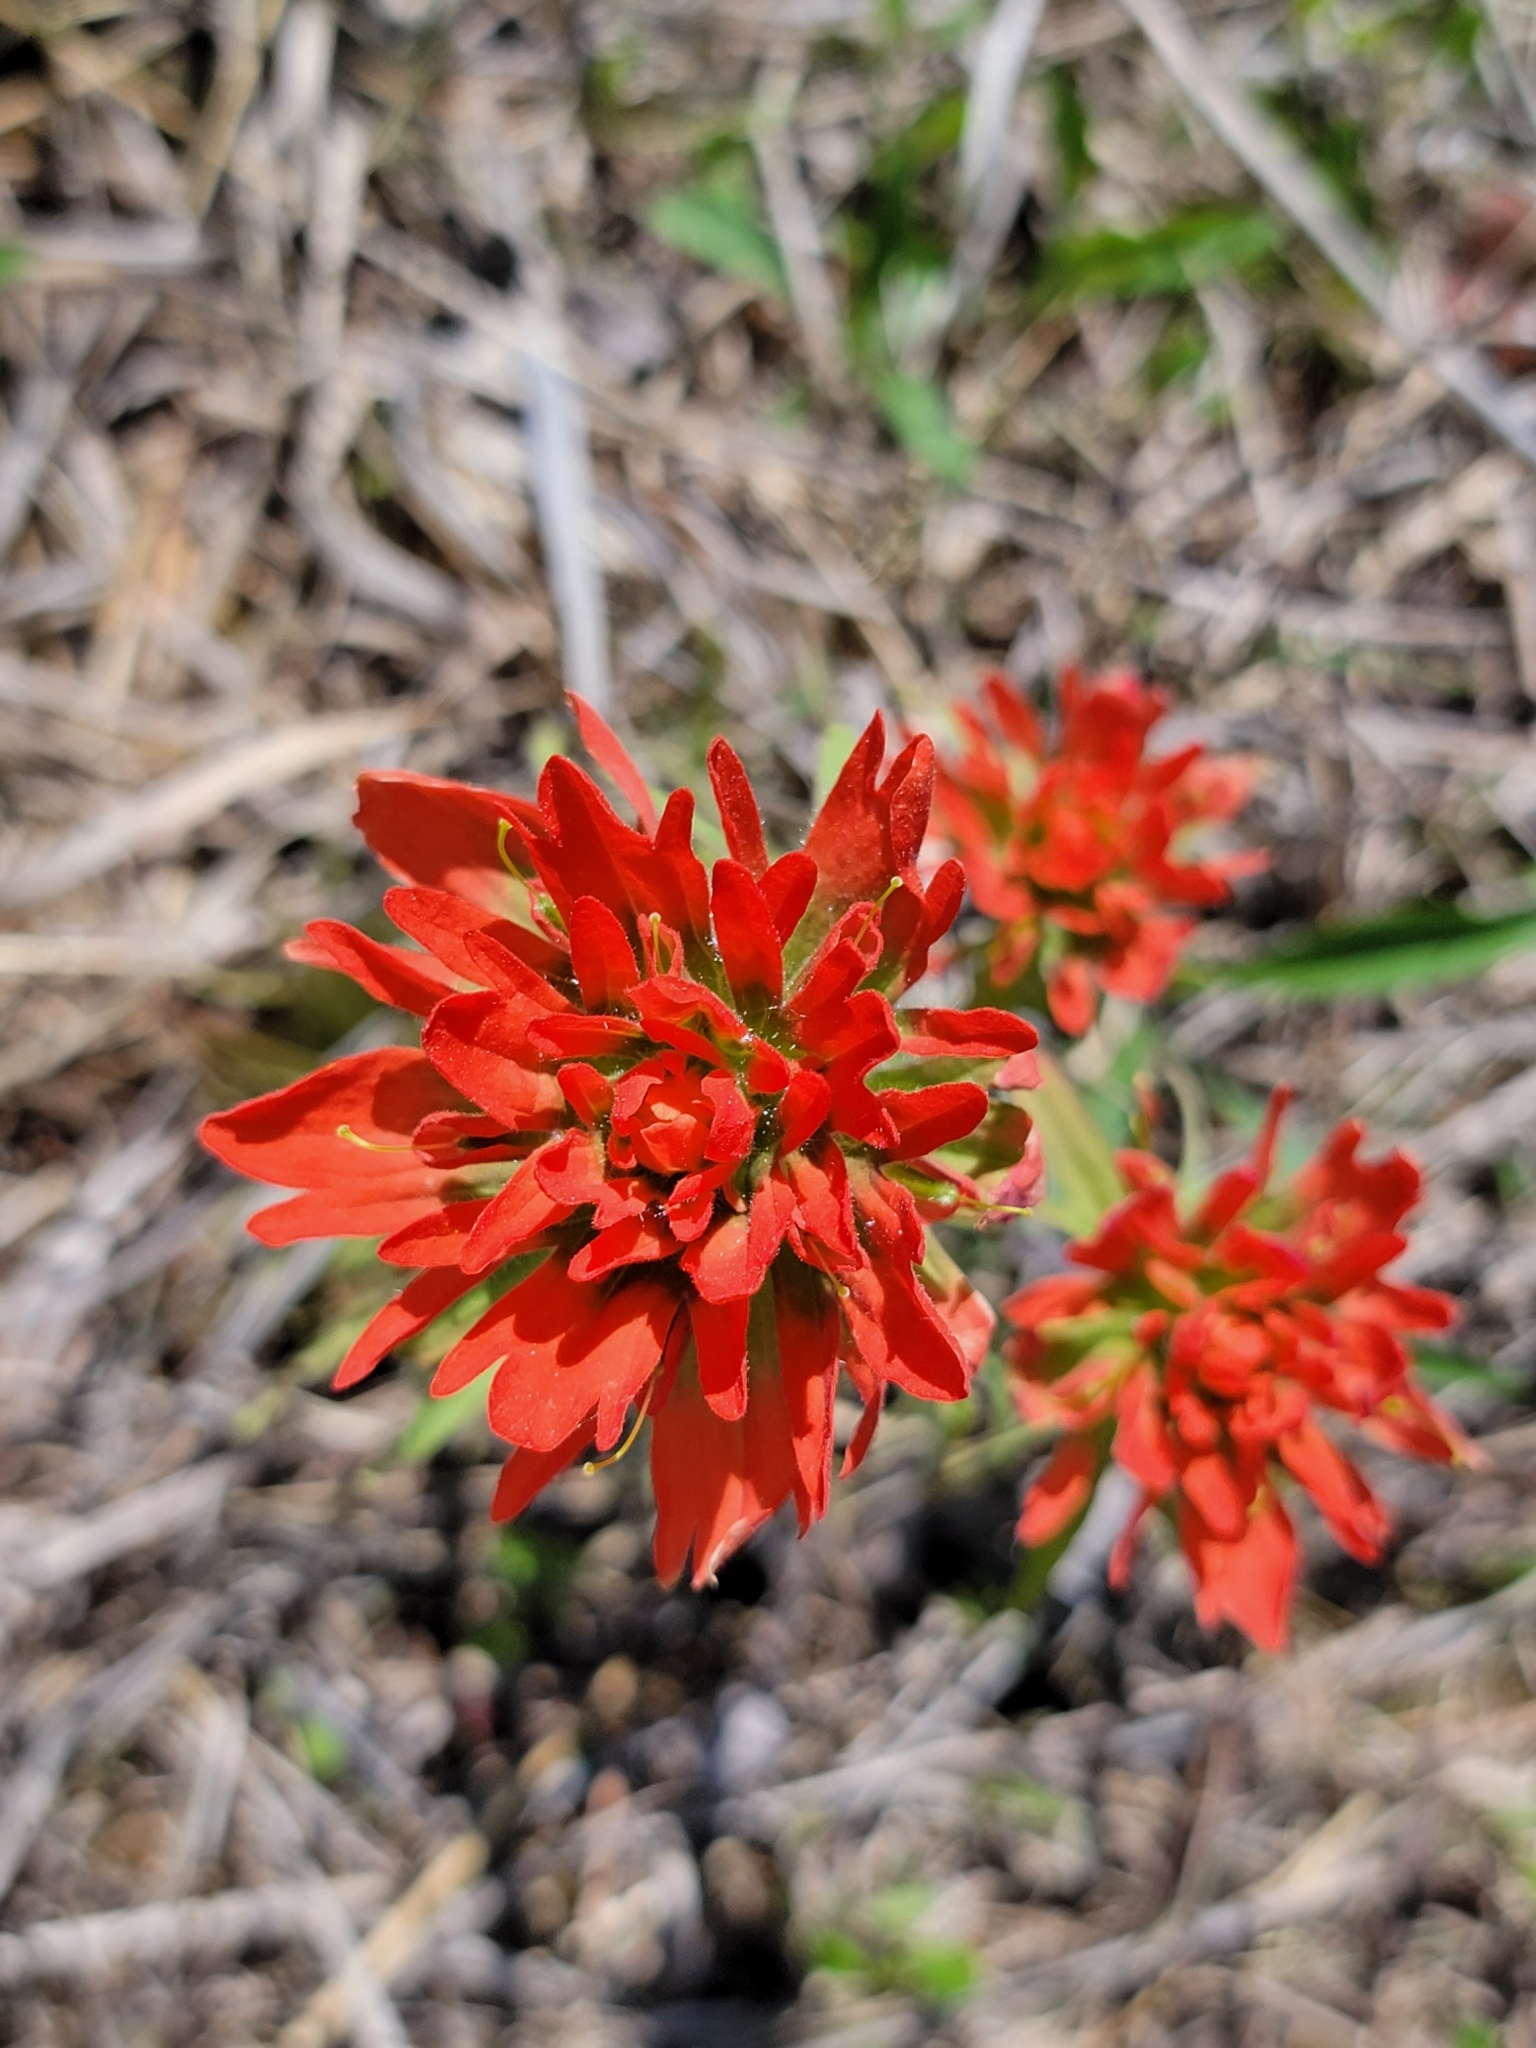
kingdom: Plantae
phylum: Tracheophyta
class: Magnoliopsida
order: Lamiales
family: Orobanchaceae
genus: Castilleja
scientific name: Castilleja coccinea
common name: Scarlet paintbrush
